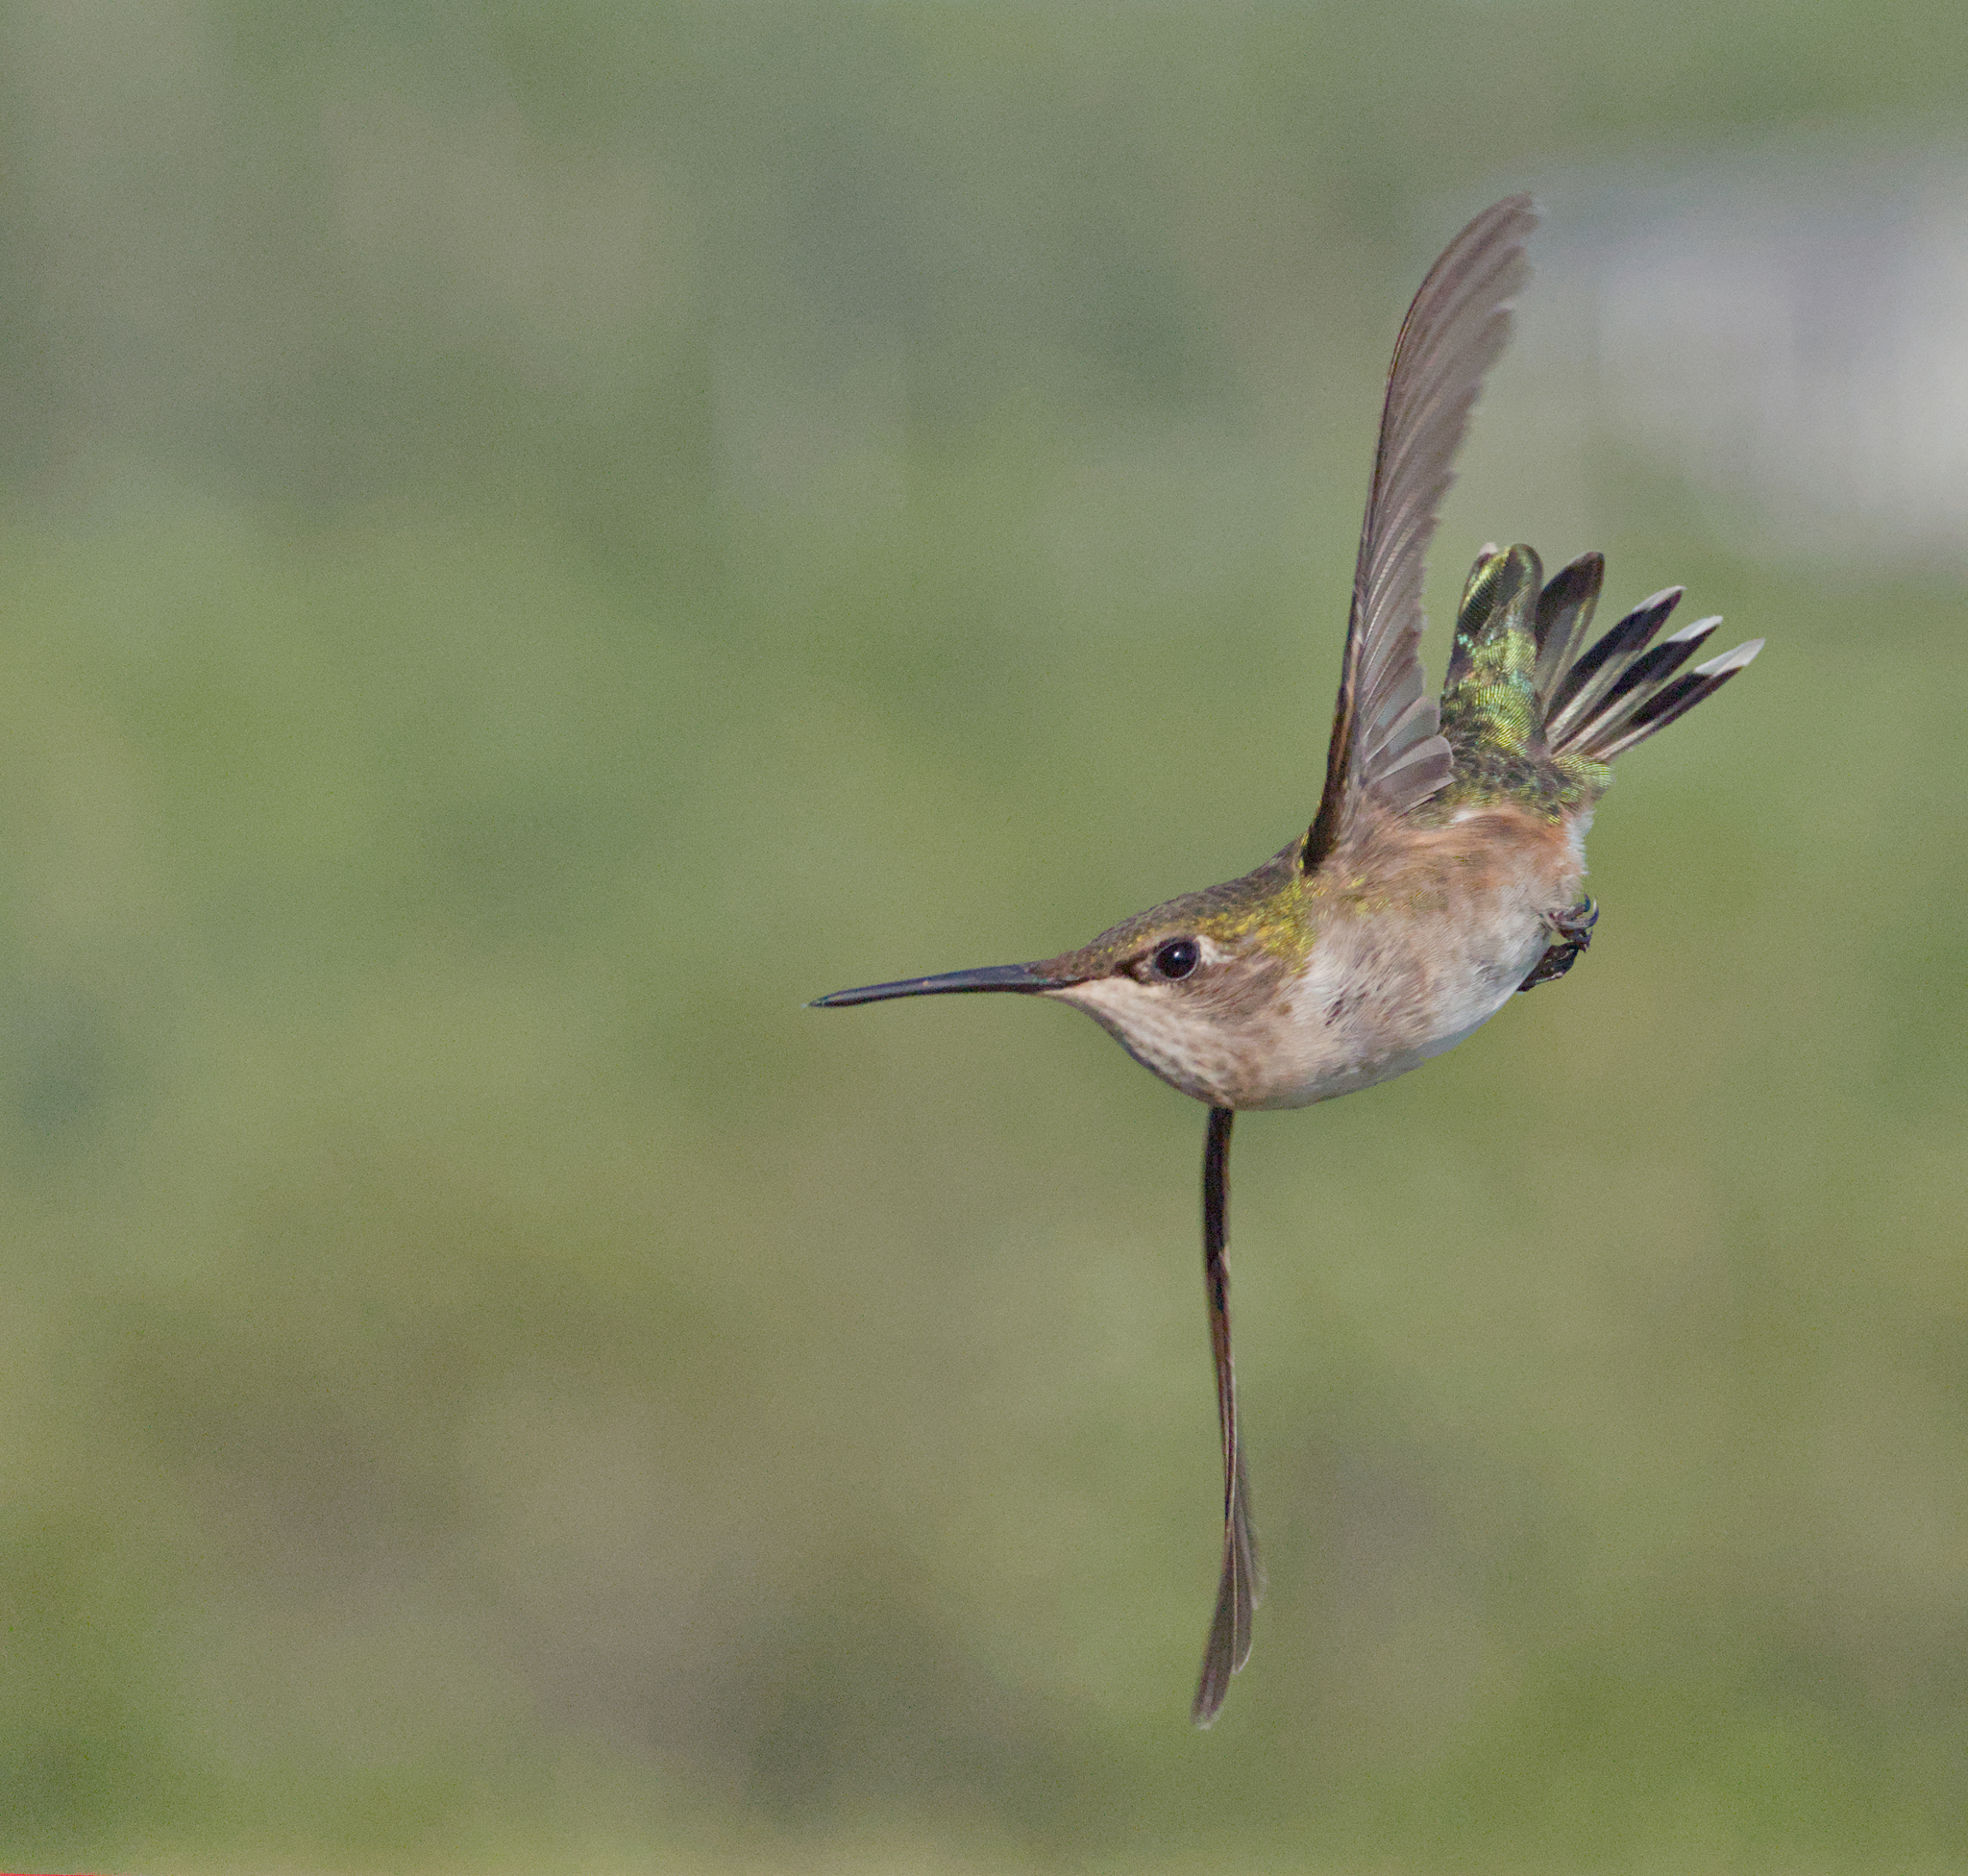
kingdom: Animalia
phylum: Chordata
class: Aves
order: Apodiformes
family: Trochilidae
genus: Archilochus
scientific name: Archilochus colubris
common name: Ruby-throated hummingbird
